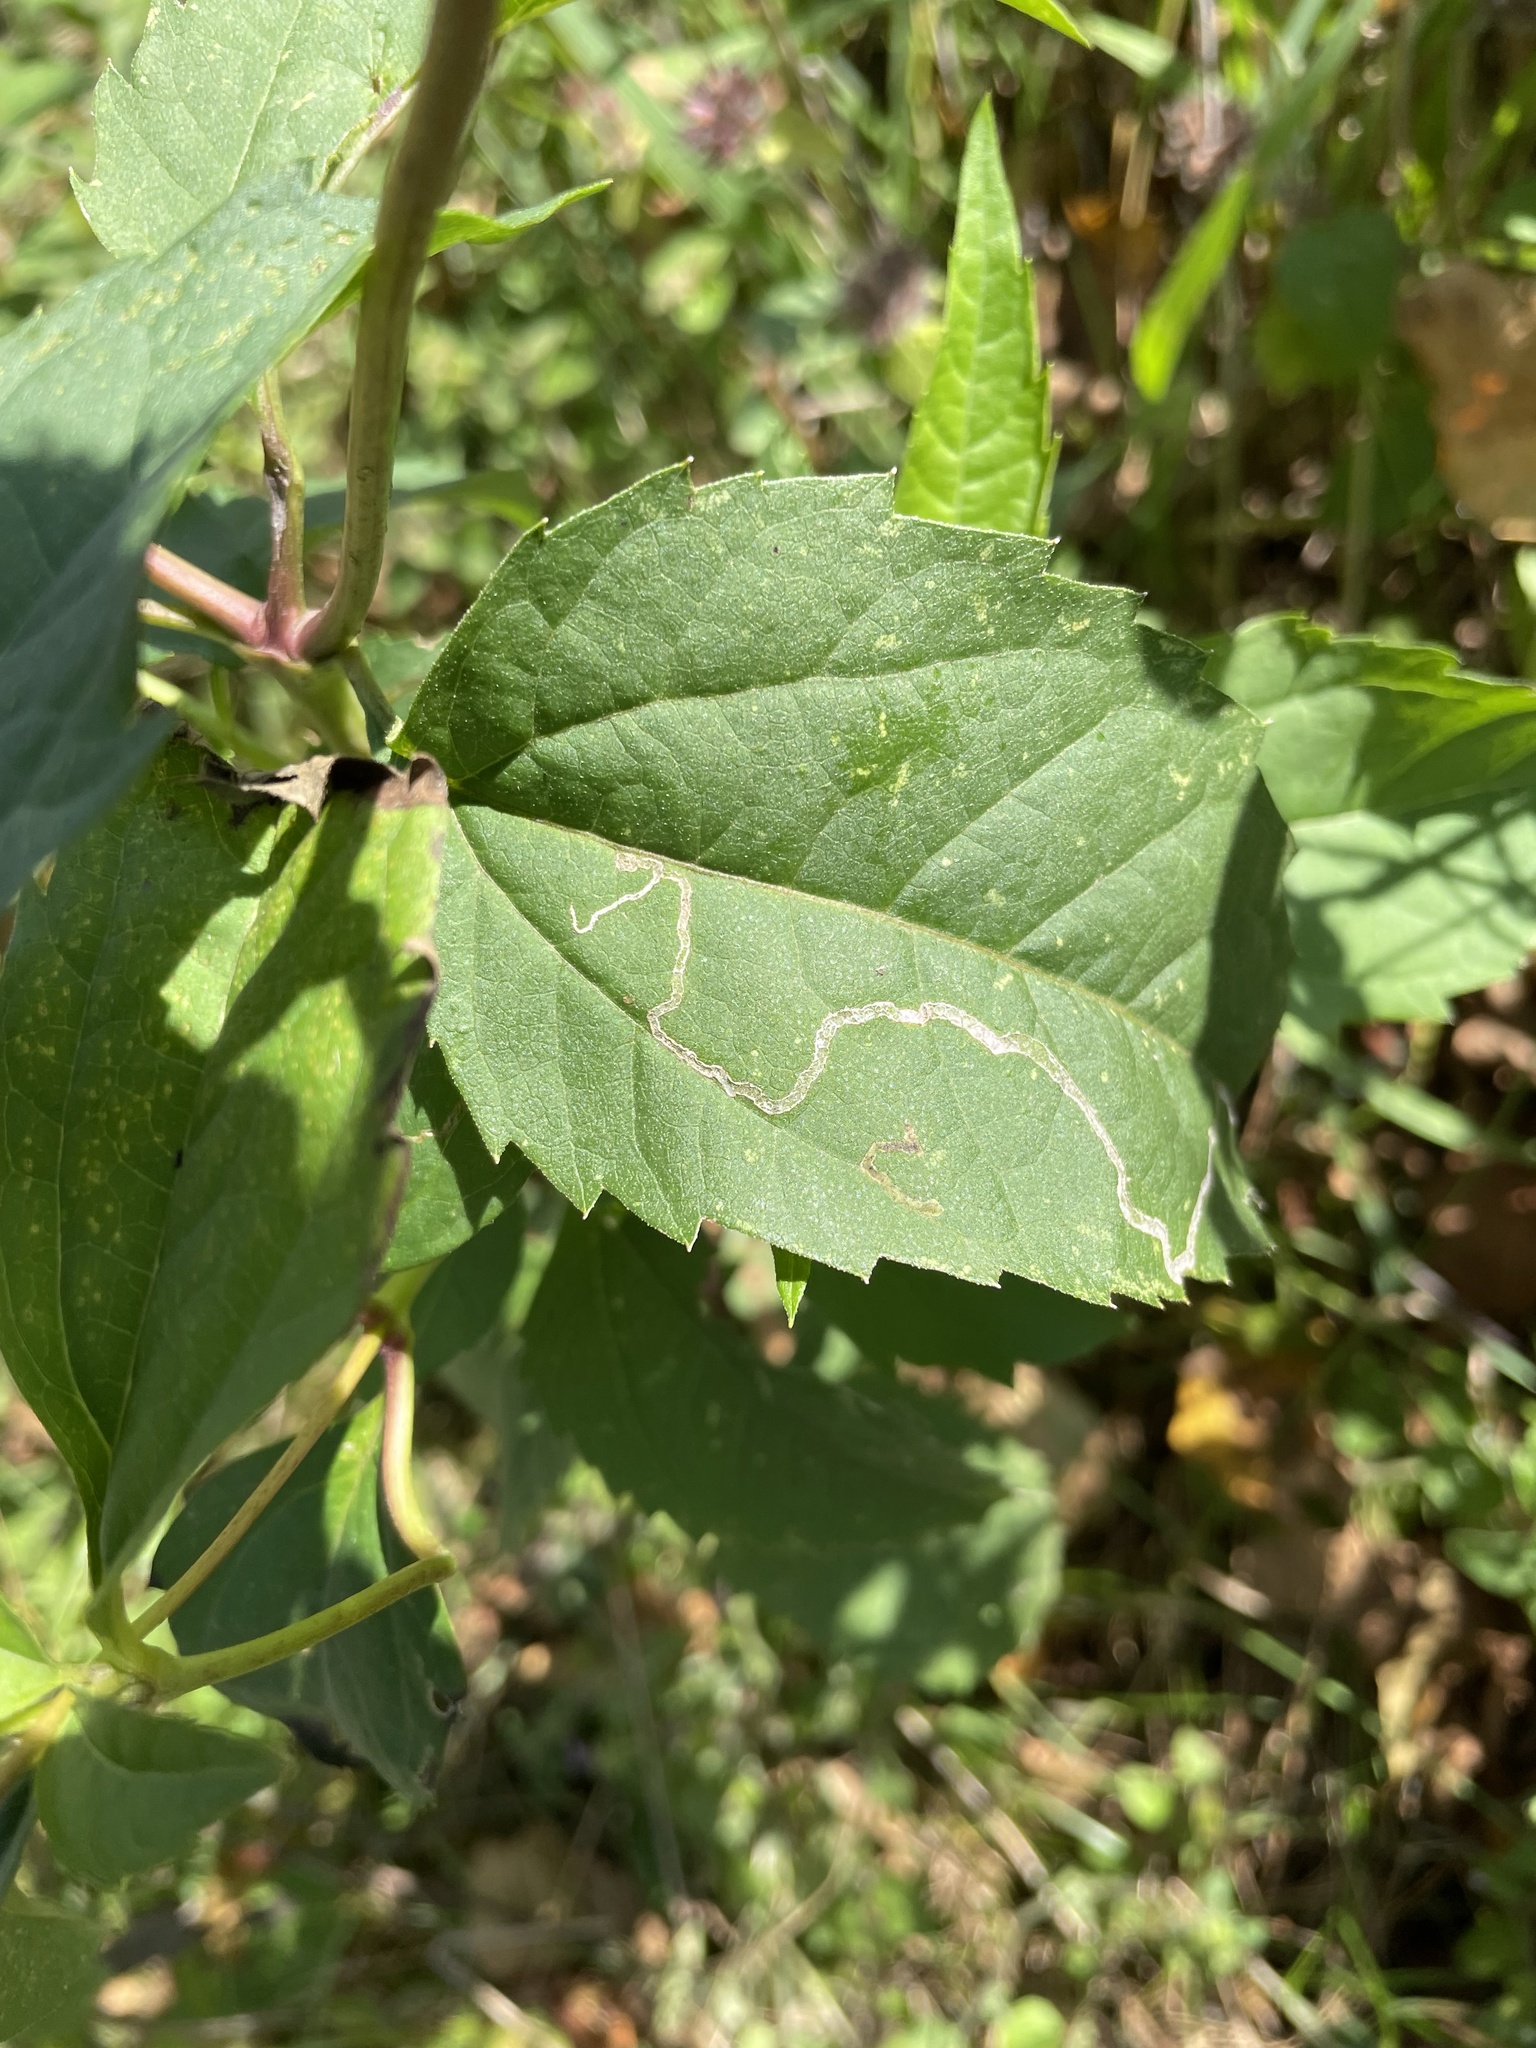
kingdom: Animalia
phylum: Arthropoda
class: Insecta
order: Diptera
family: Agromyzidae
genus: Liriomyza
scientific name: Liriomyza arctii
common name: Burdock leafminer
